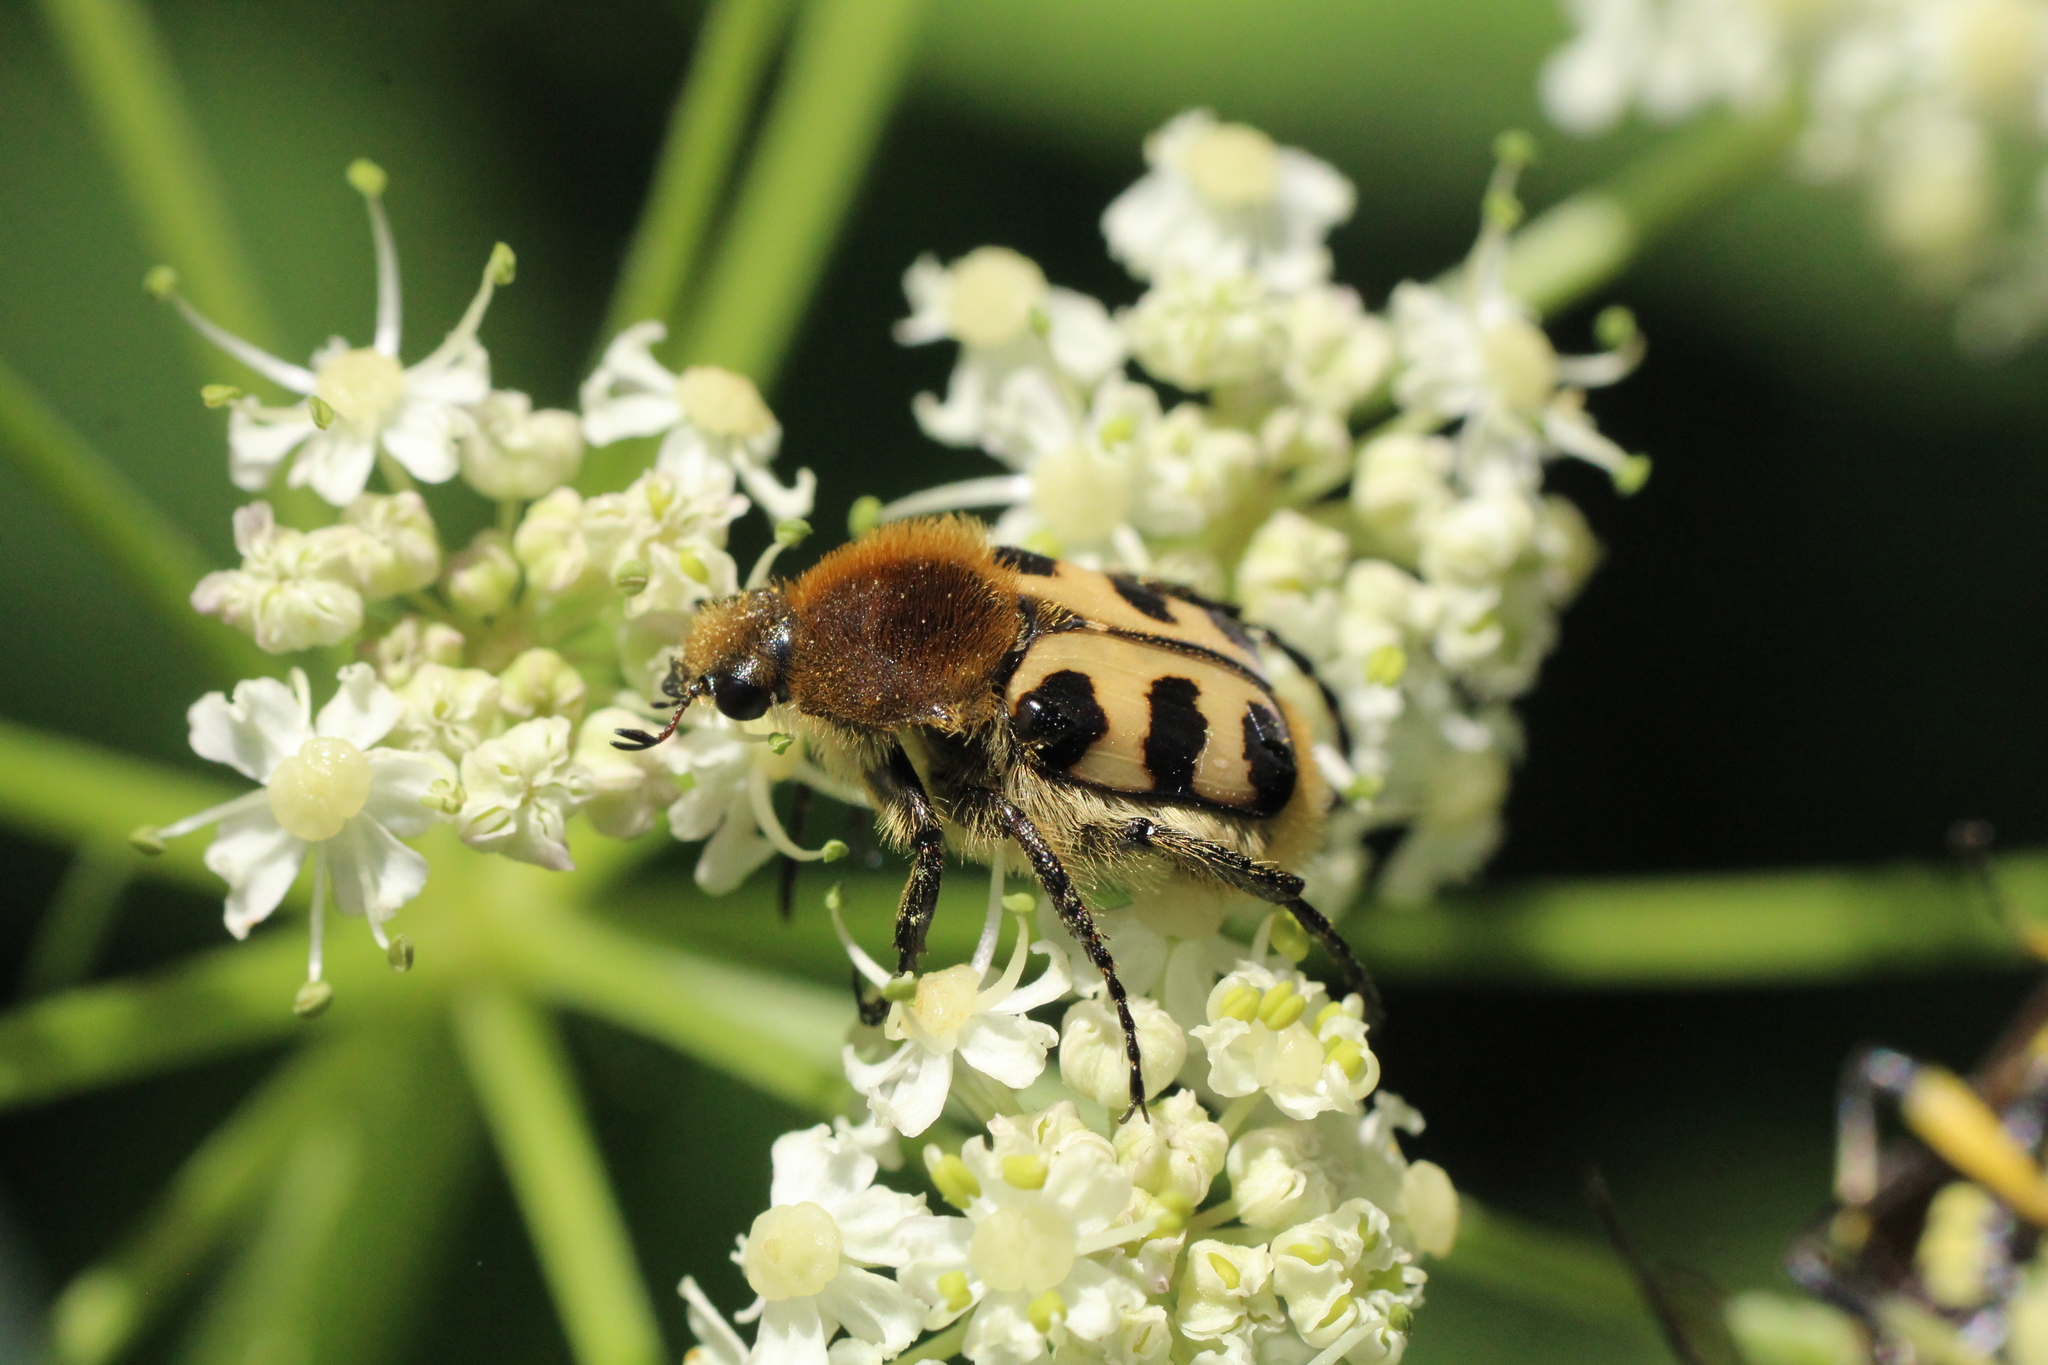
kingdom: Animalia
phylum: Arthropoda
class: Insecta
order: Coleoptera
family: Scarabaeidae
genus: Trichius
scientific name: Trichius gallicus
